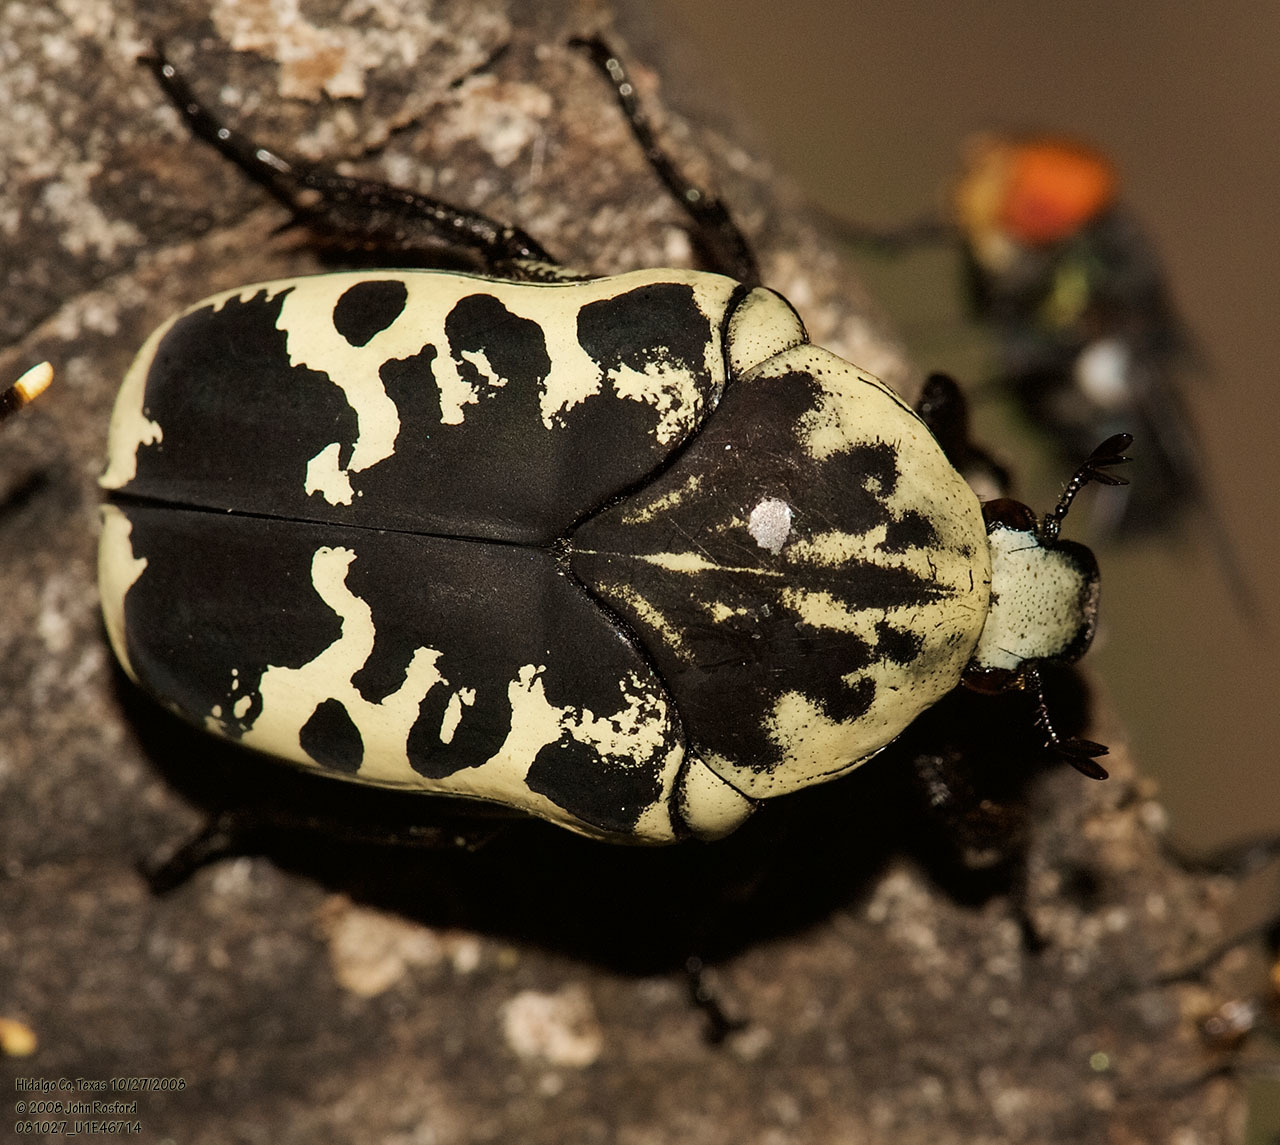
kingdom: Animalia
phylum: Arthropoda
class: Insecta
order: Coleoptera
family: Scarabaeidae
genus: Gymnetis
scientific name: Gymnetis thula
